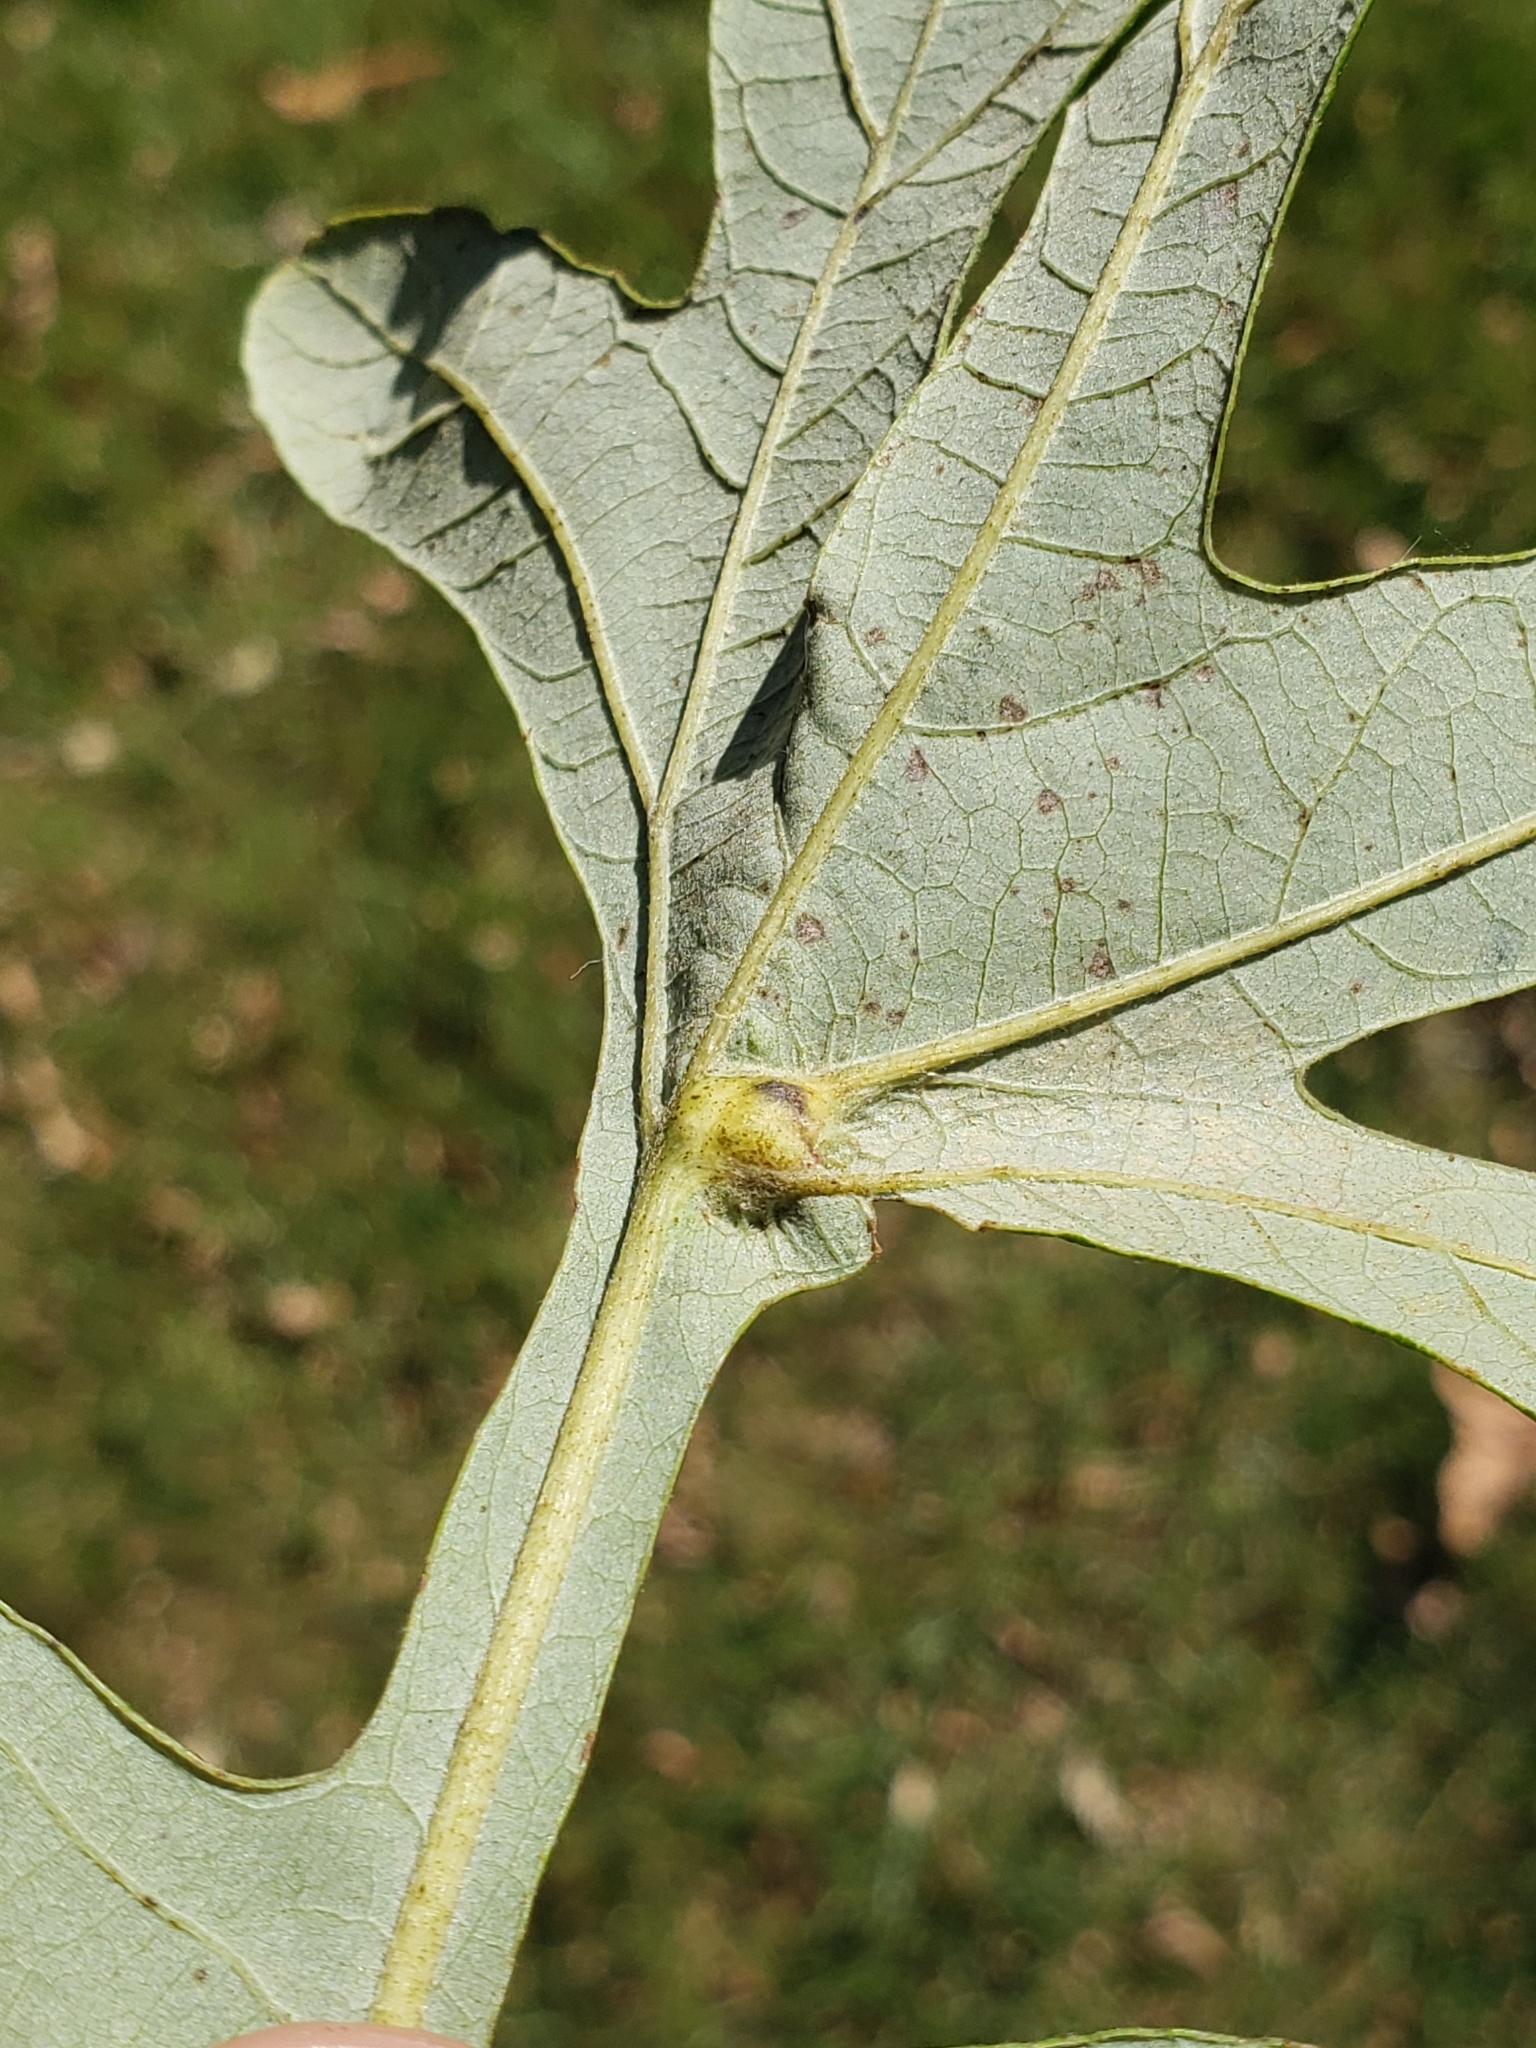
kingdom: Animalia
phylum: Arthropoda
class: Insecta
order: Hymenoptera
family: Cynipidae
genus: Bassettia
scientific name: Bassettia flavipes
